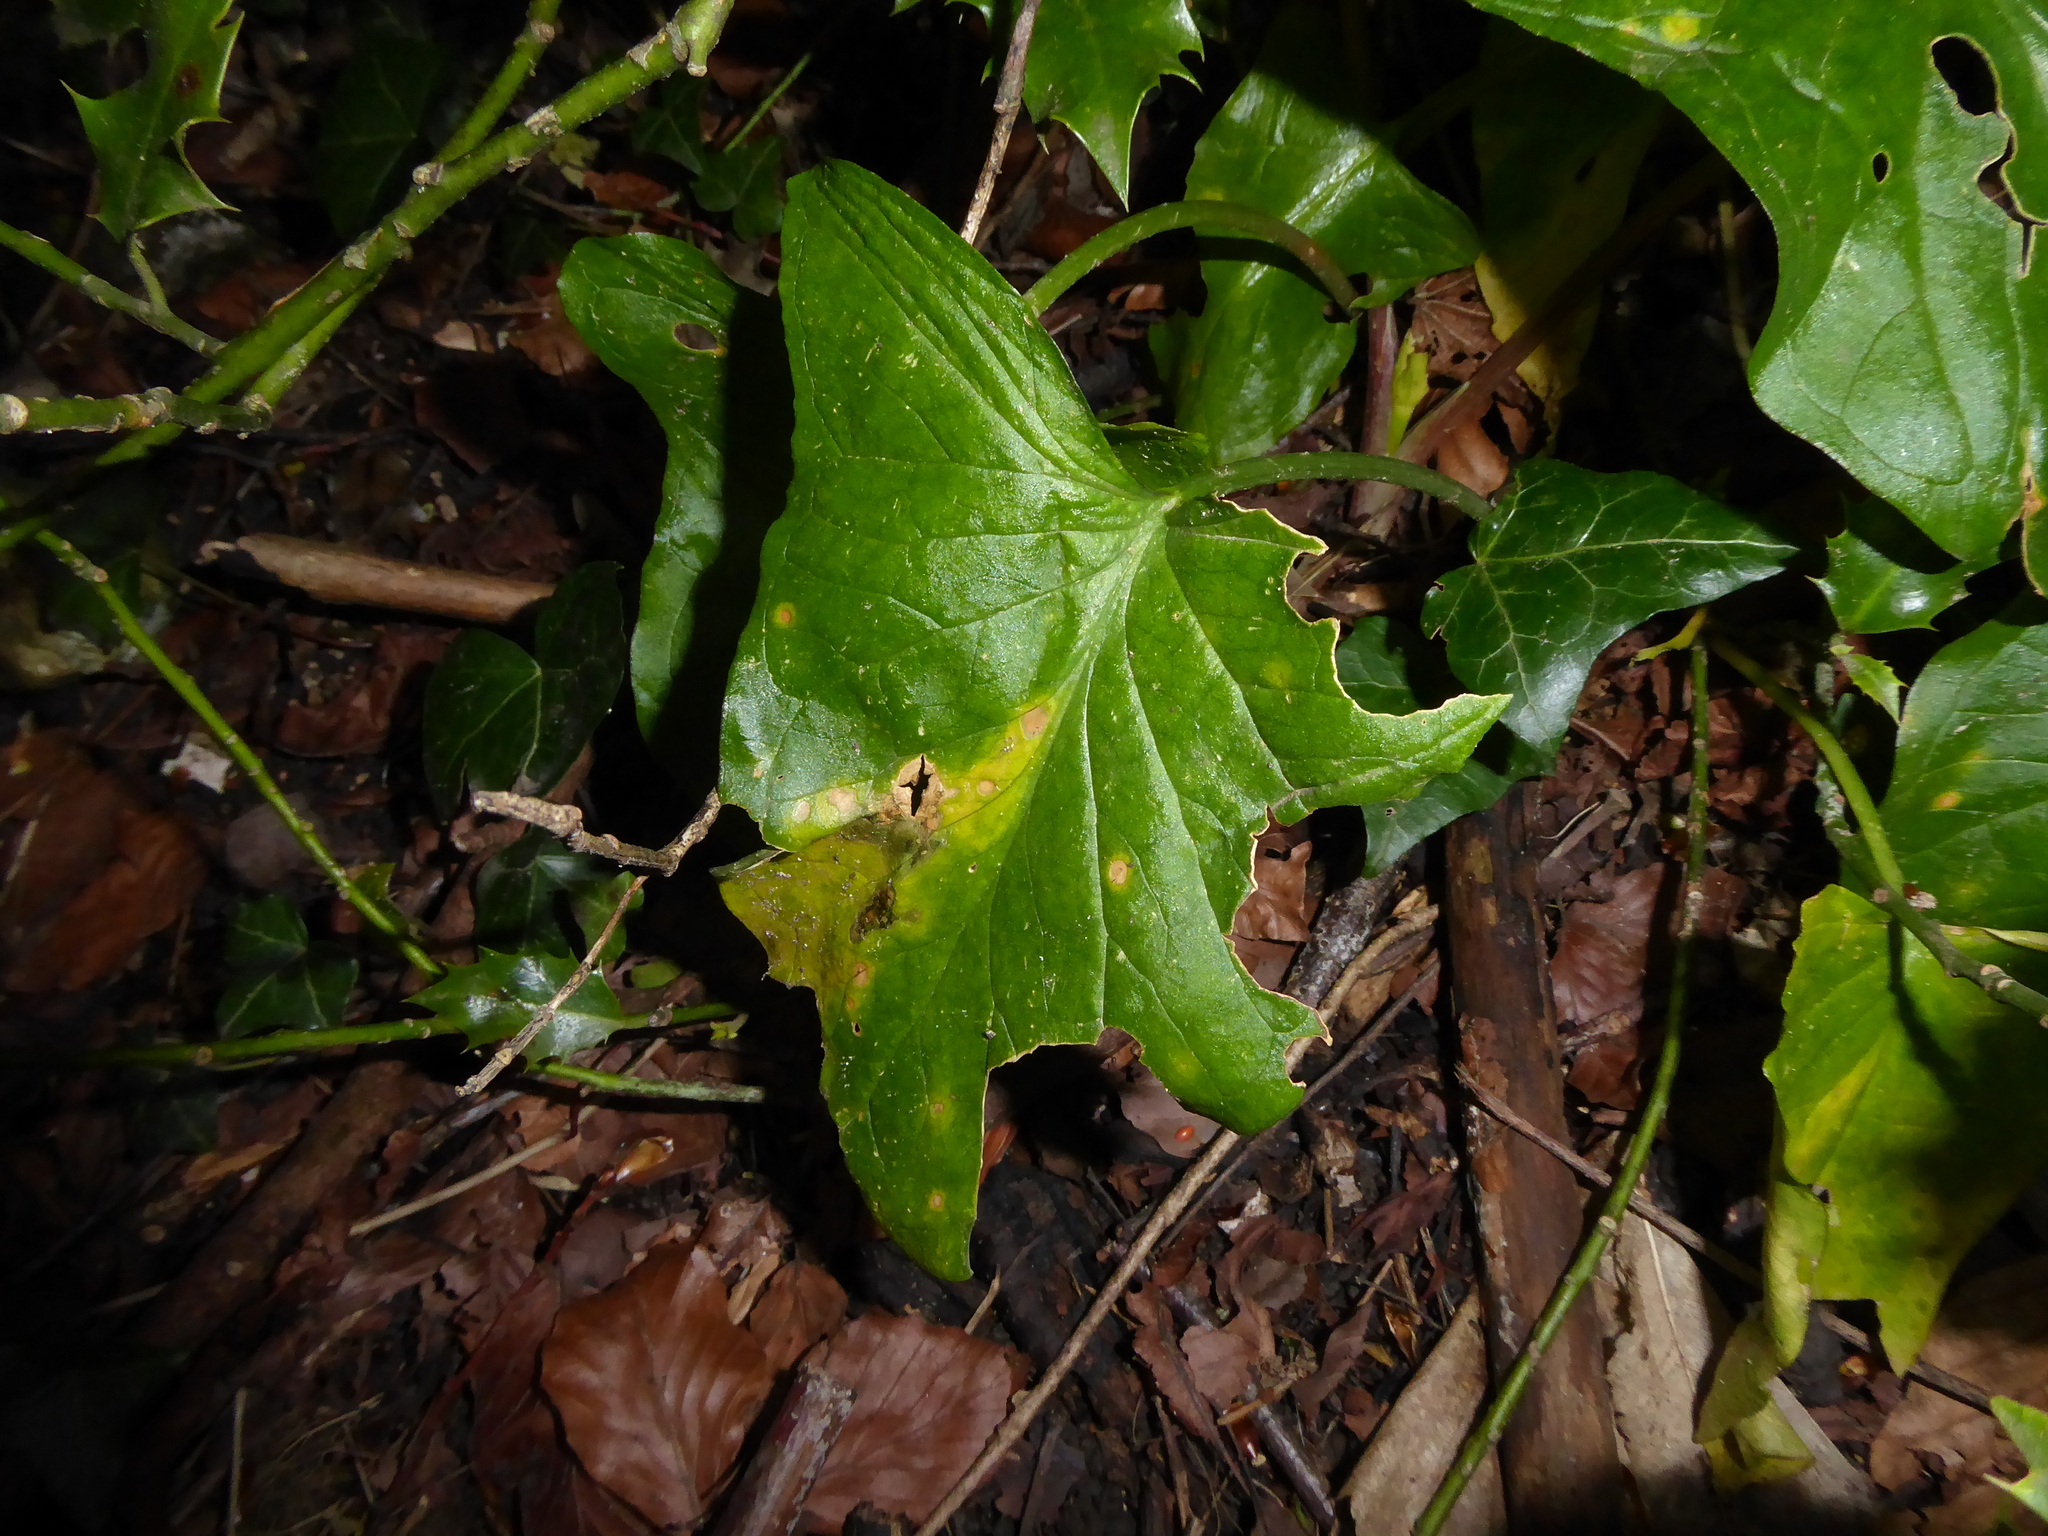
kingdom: Plantae
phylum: Tracheophyta
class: Liliopsida
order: Alismatales
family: Araceae
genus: Arum
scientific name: Arum maculatum
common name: Lords-and-ladies
